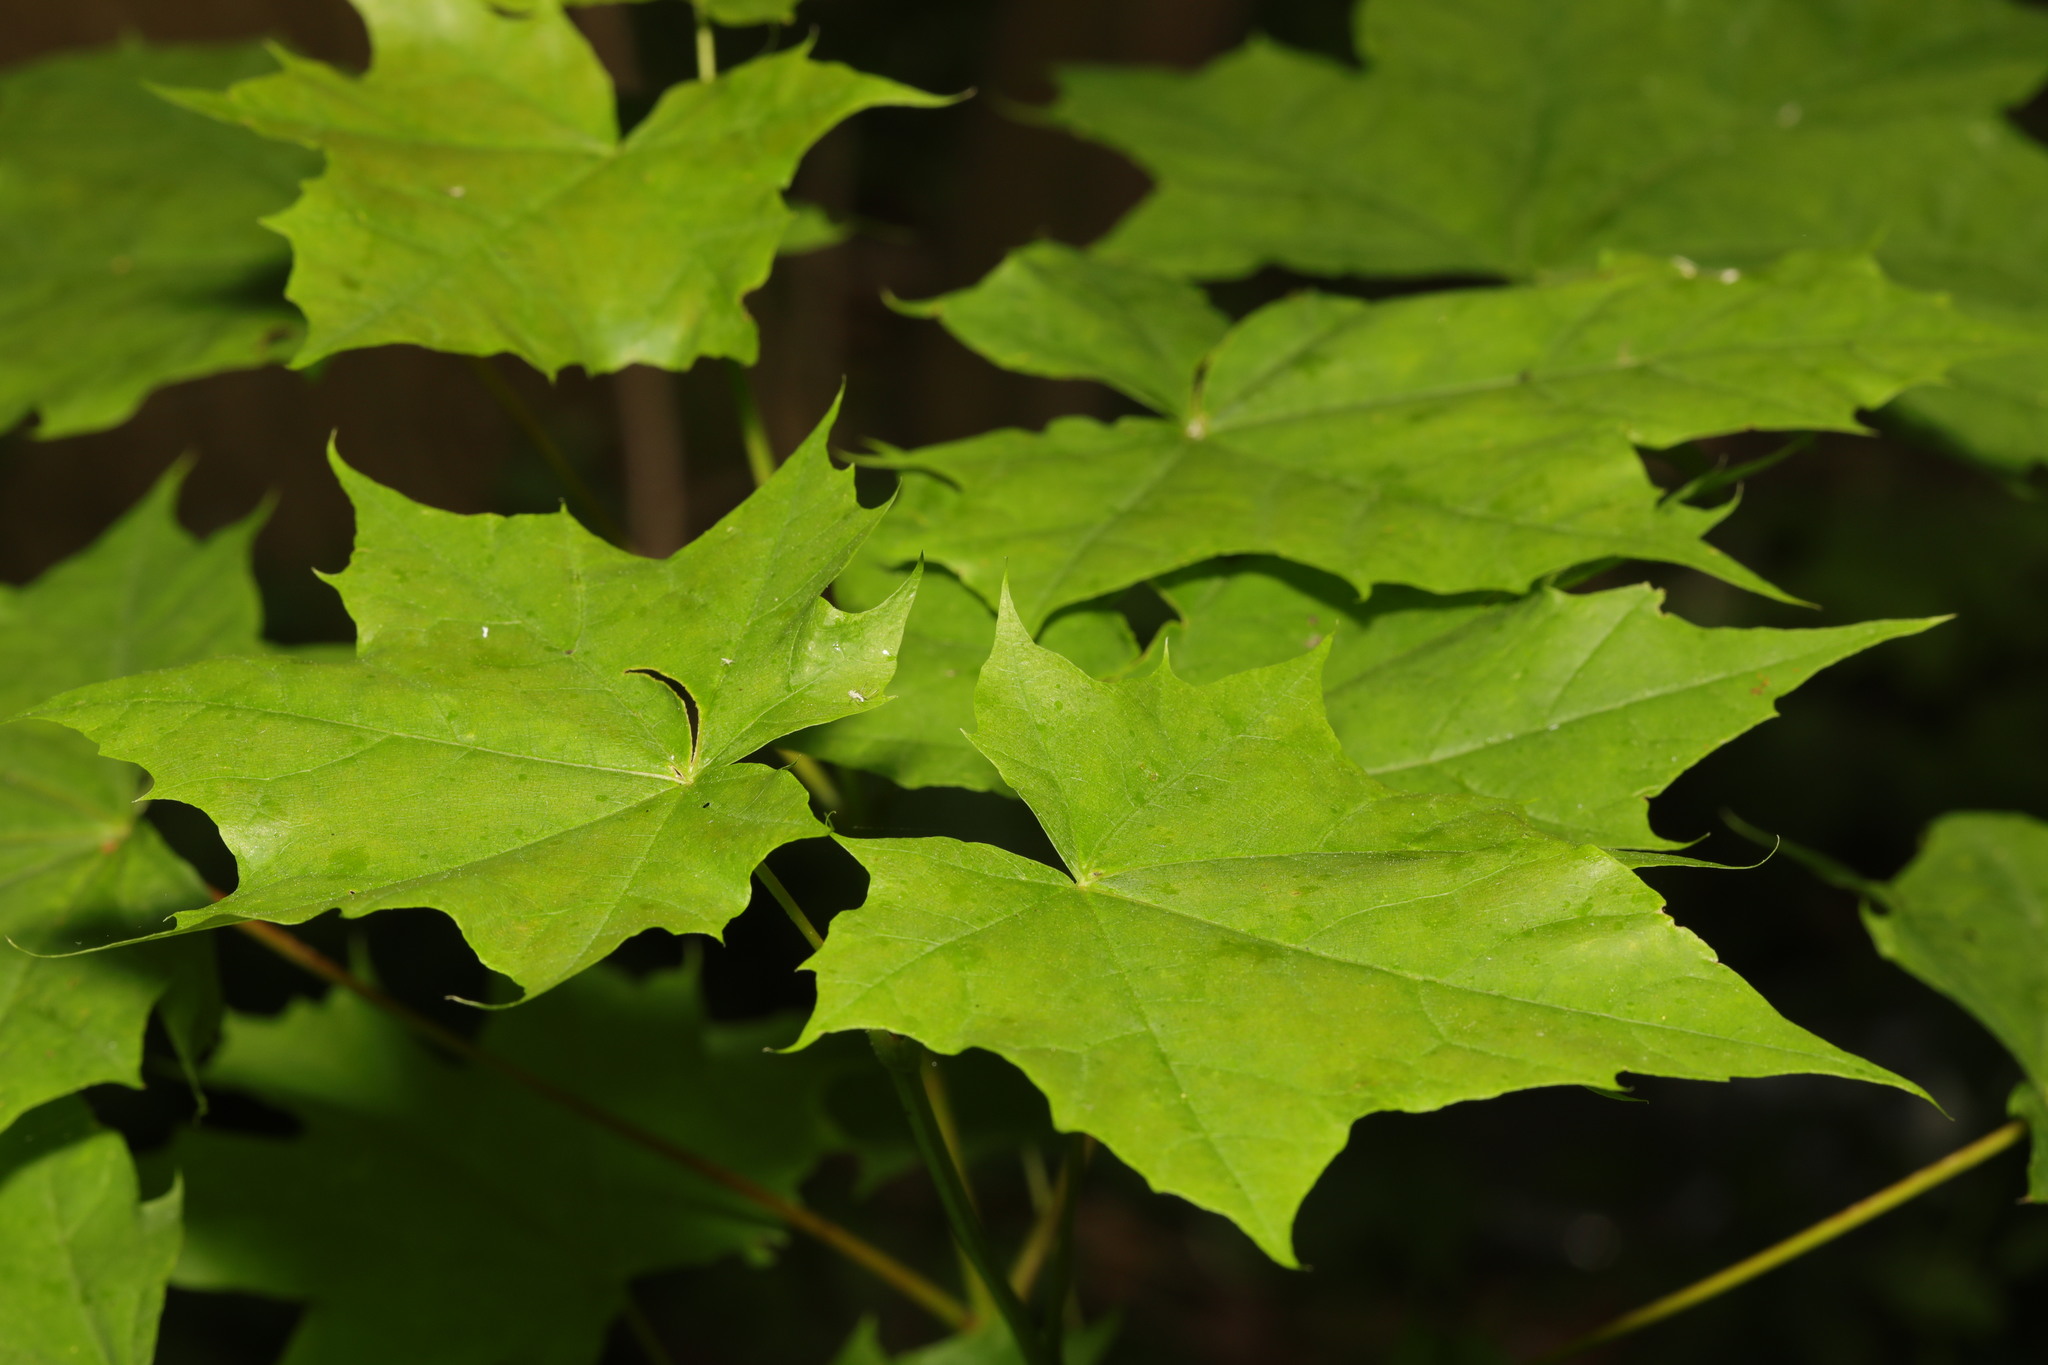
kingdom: Plantae
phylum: Tracheophyta
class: Magnoliopsida
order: Sapindales
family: Sapindaceae
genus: Acer
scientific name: Acer platanoides
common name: Norway maple
